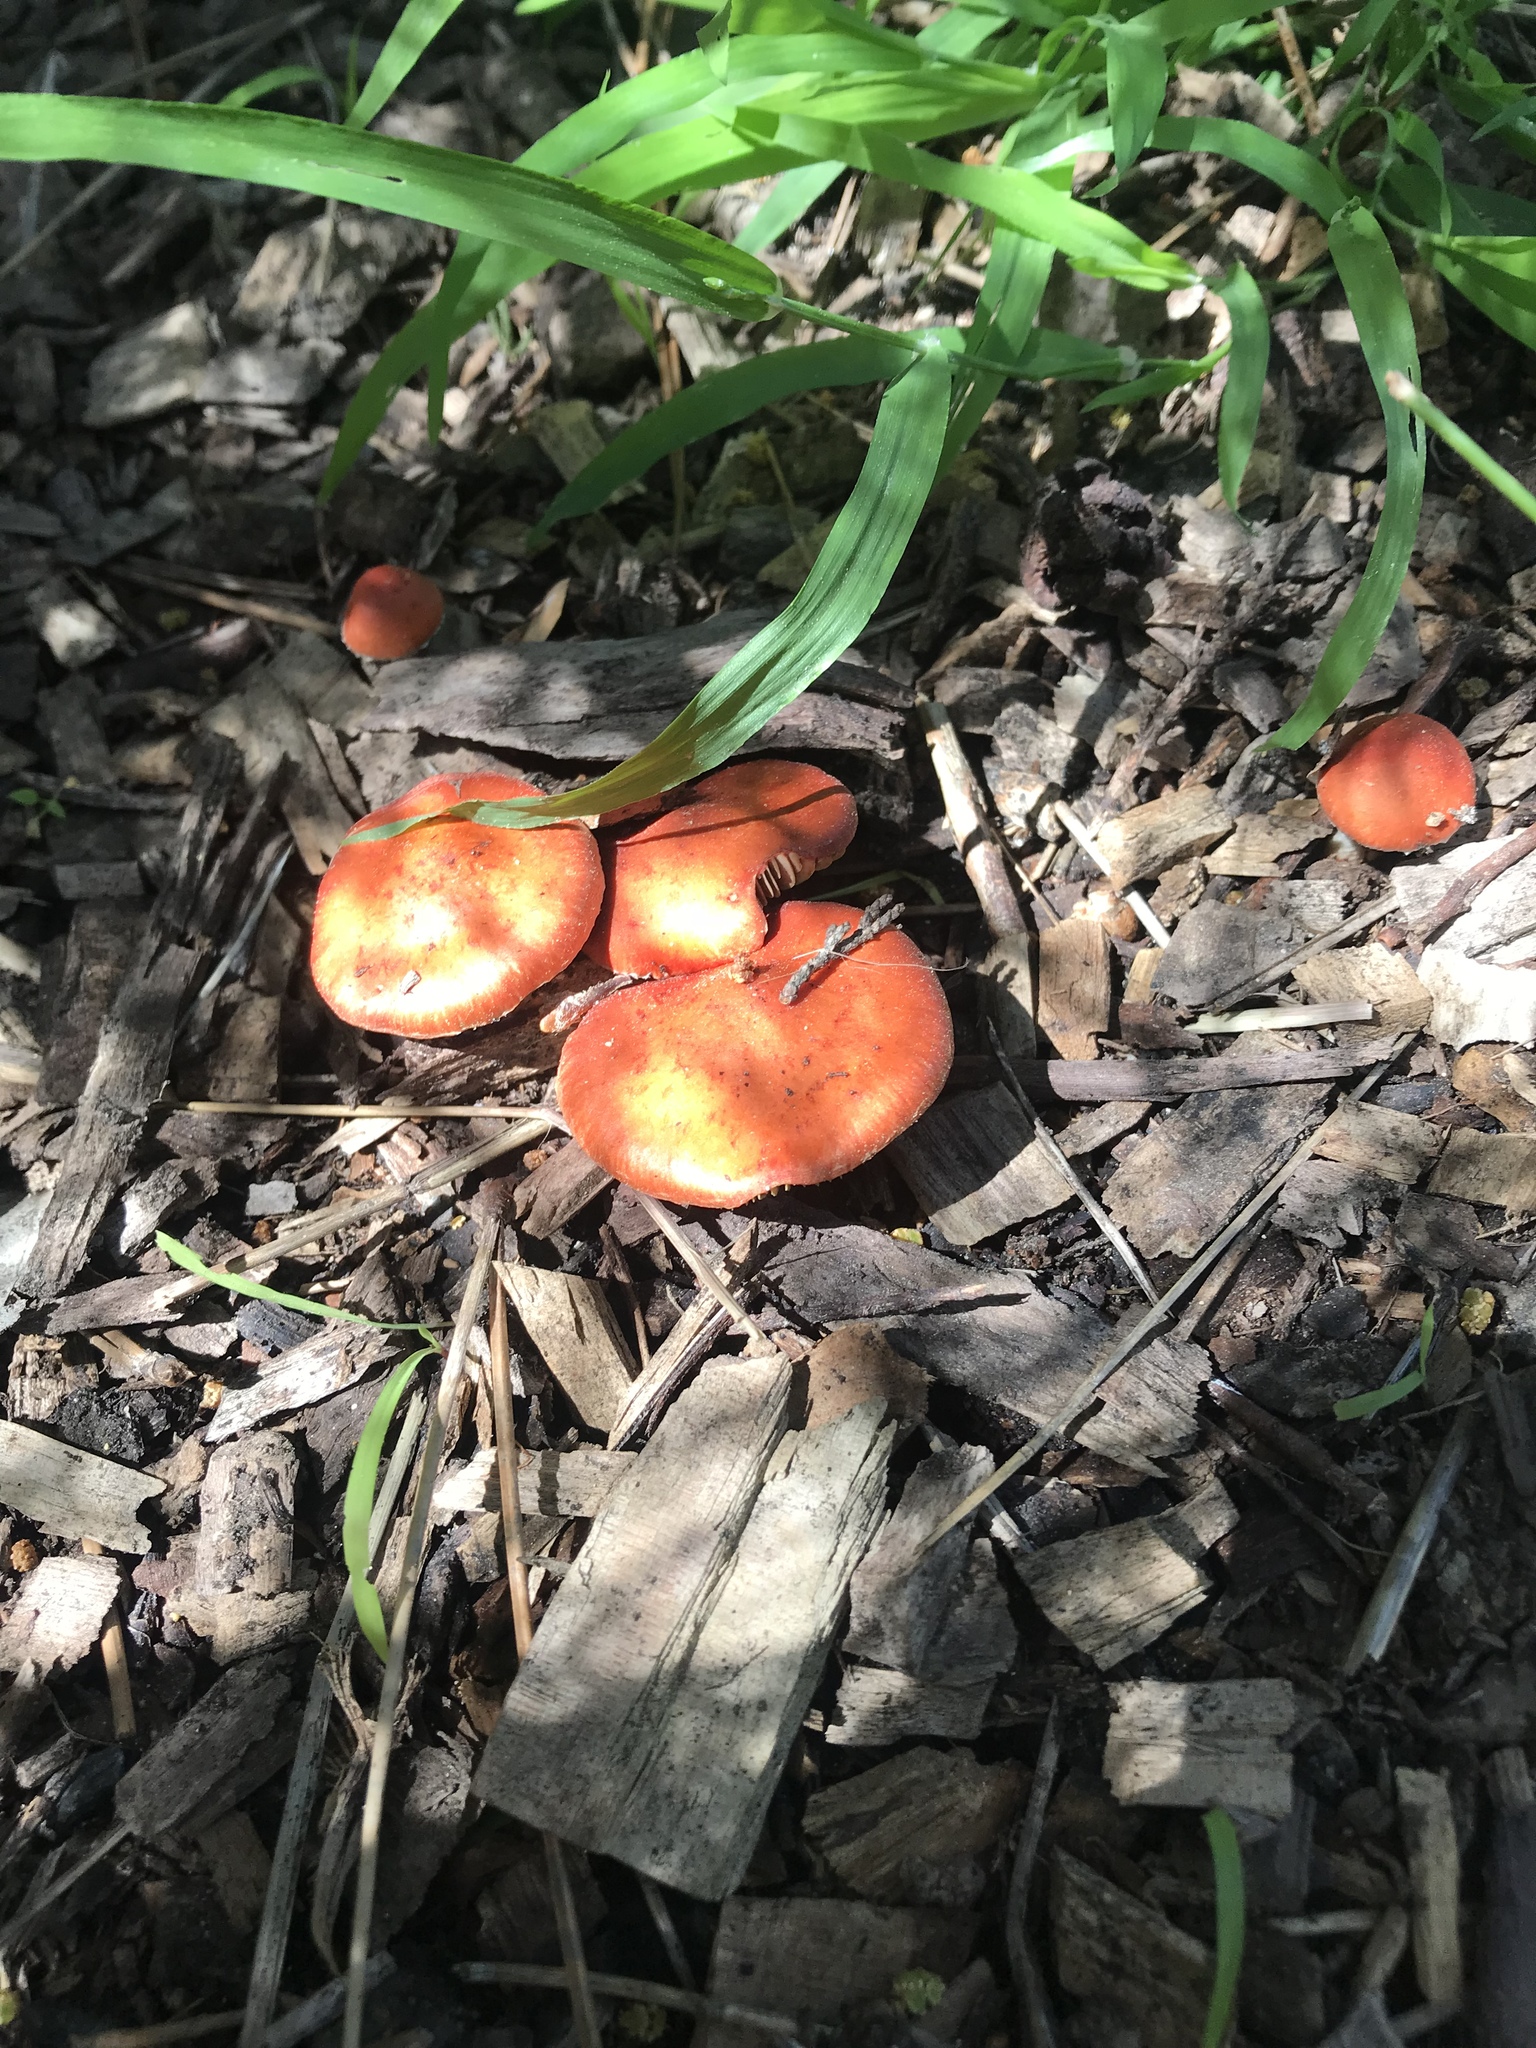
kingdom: Fungi
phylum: Basidiomycota
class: Agaricomycetes
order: Agaricales
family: Strophariaceae
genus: Leratiomyces
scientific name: Leratiomyces ceres
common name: Redlead roundhead
